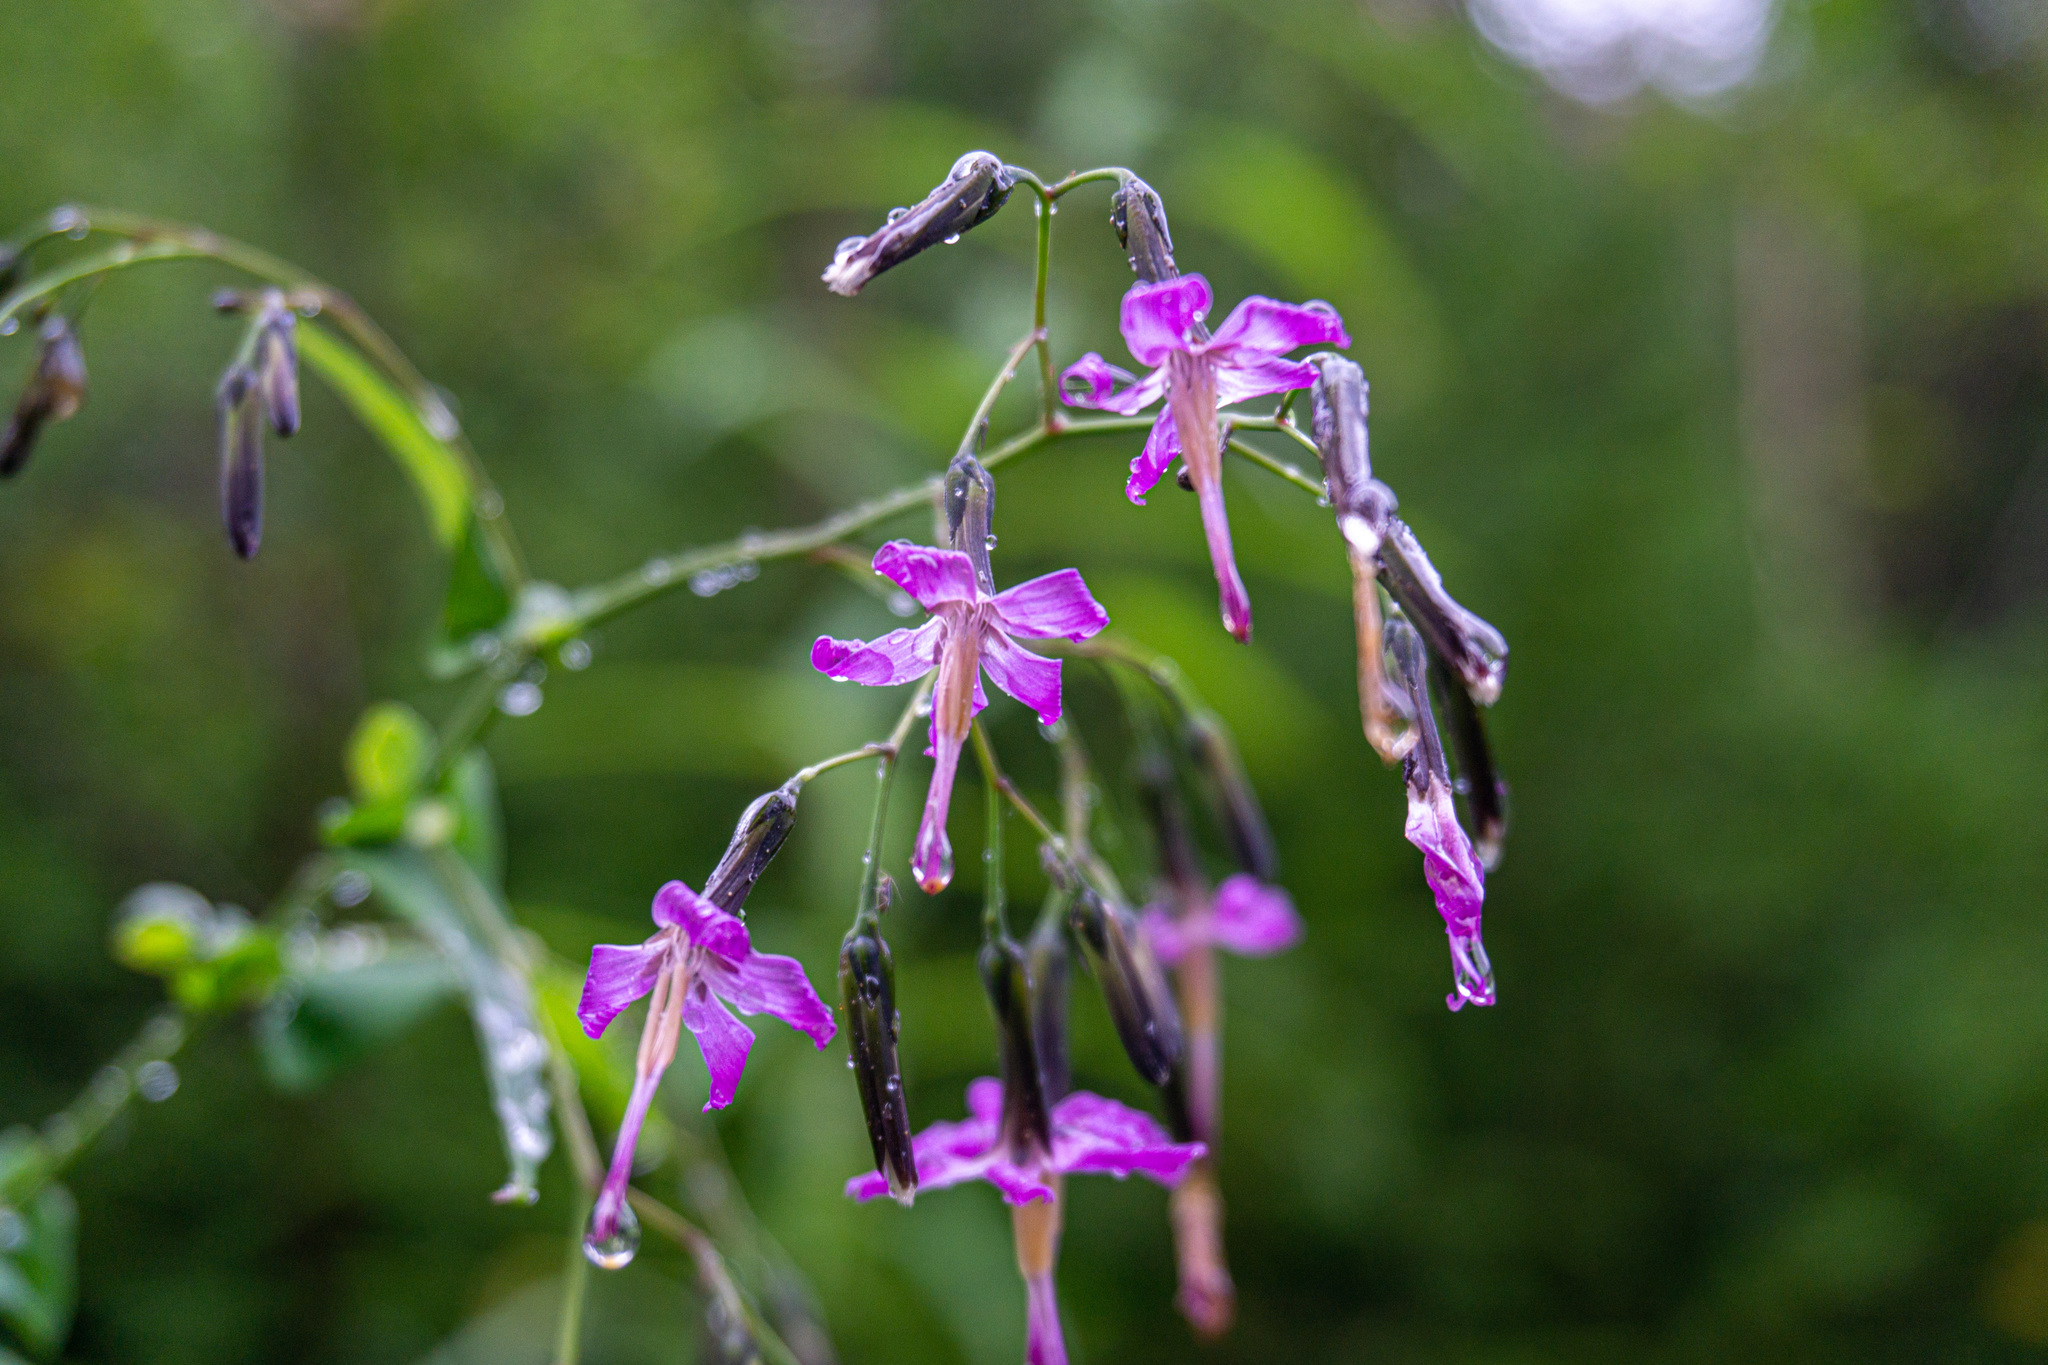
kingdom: Plantae
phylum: Tracheophyta
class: Magnoliopsida
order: Asterales
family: Asteraceae
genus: Prenanthes
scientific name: Prenanthes purpurea
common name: Purple lettuce
